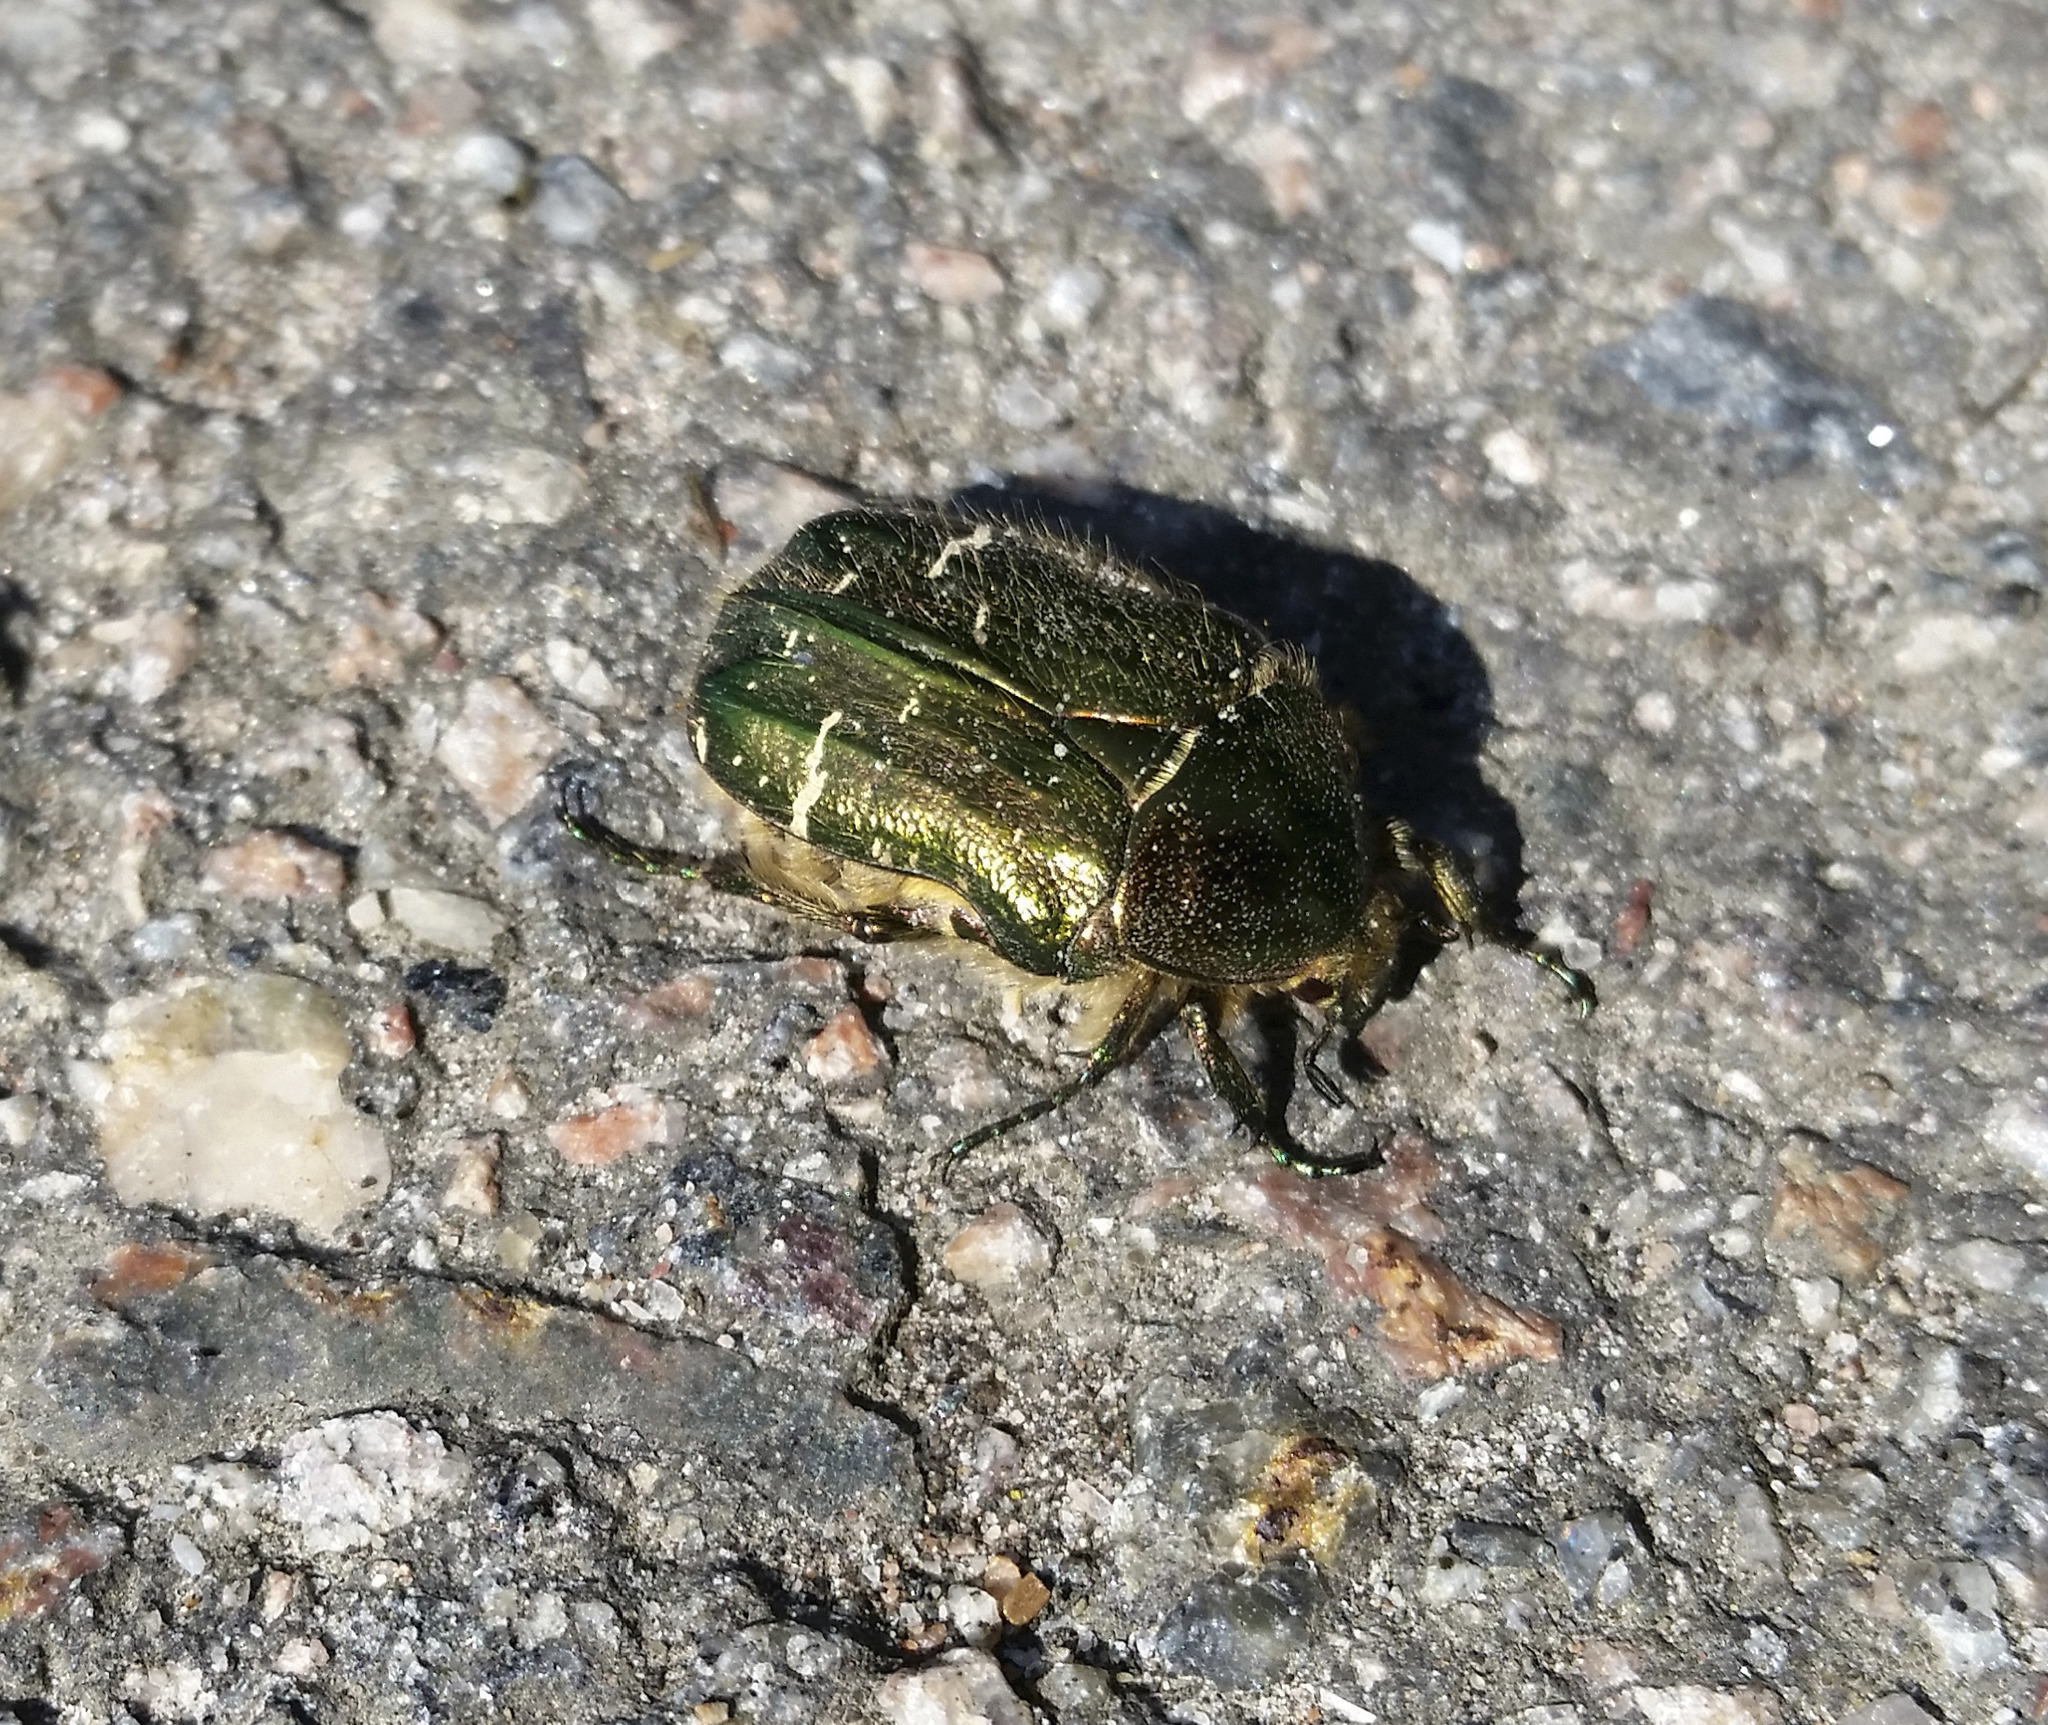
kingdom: Animalia
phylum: Arthropoda
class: Insecta
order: Coleoptera
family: Scarabaeidae
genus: Cetonia
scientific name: Cetonia aurata
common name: Rose chafer
